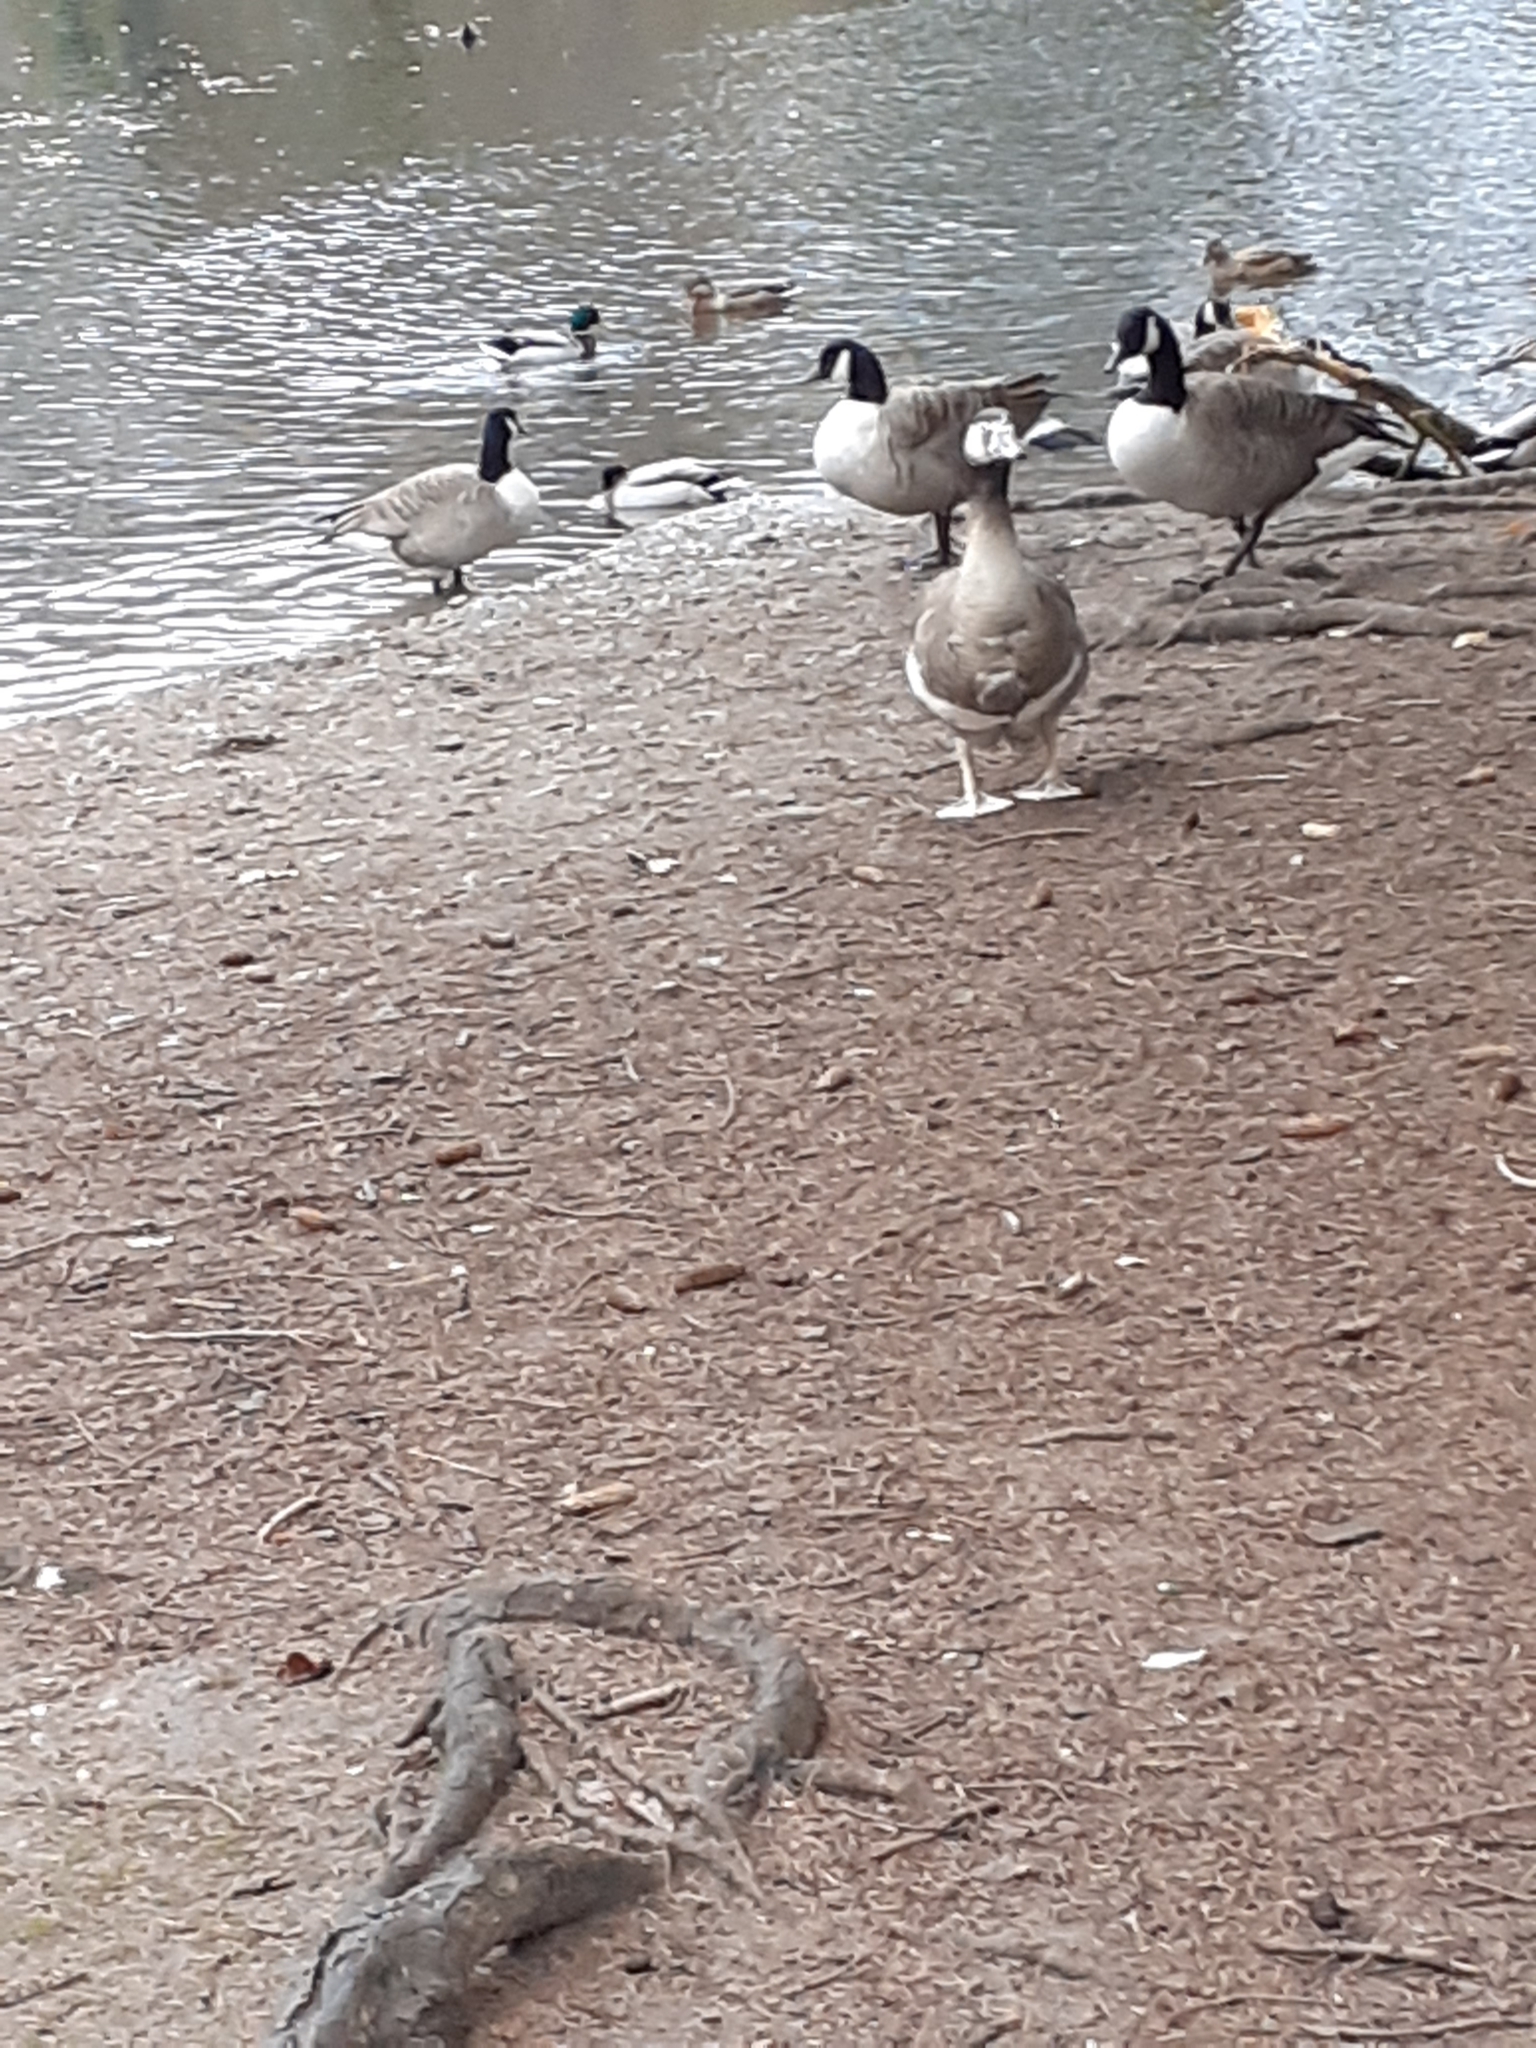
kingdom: Animalia
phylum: Chordata
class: Aves
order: Anseriformes
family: Anatidae
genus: Branta
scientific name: Branta canadensis
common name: Canada goose
